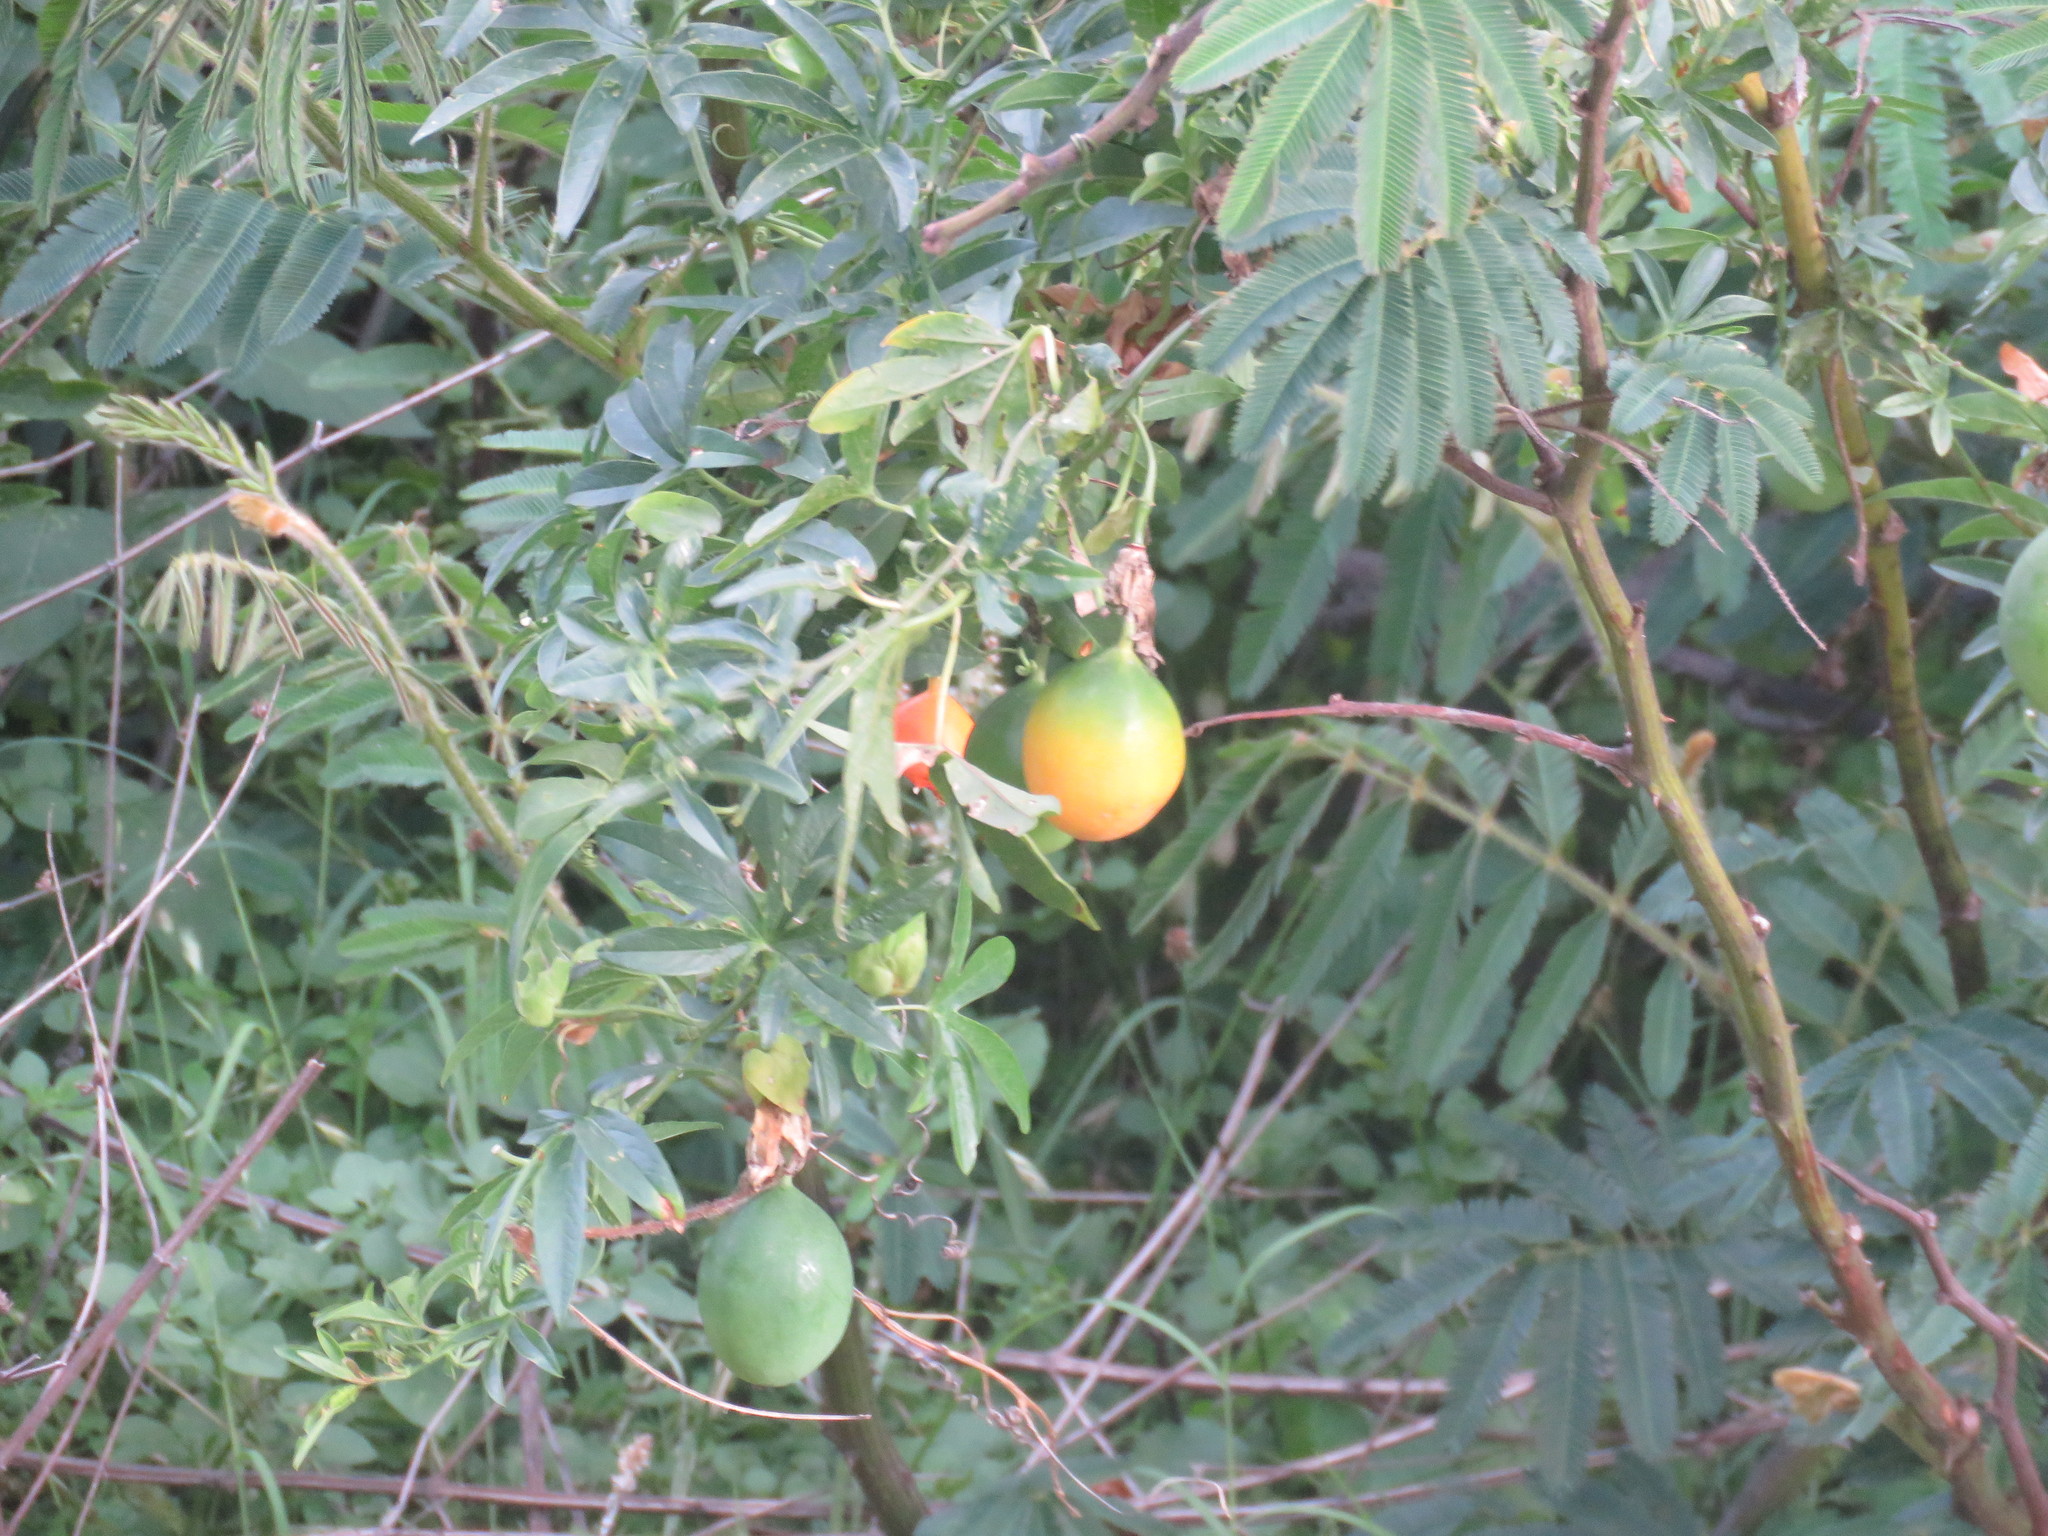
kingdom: Plantae
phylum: Tracheophyta
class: Magnoliopsida
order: Fabales
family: Fabaceae
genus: Mimosa
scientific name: Mimosa pigra
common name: Black mimosa
